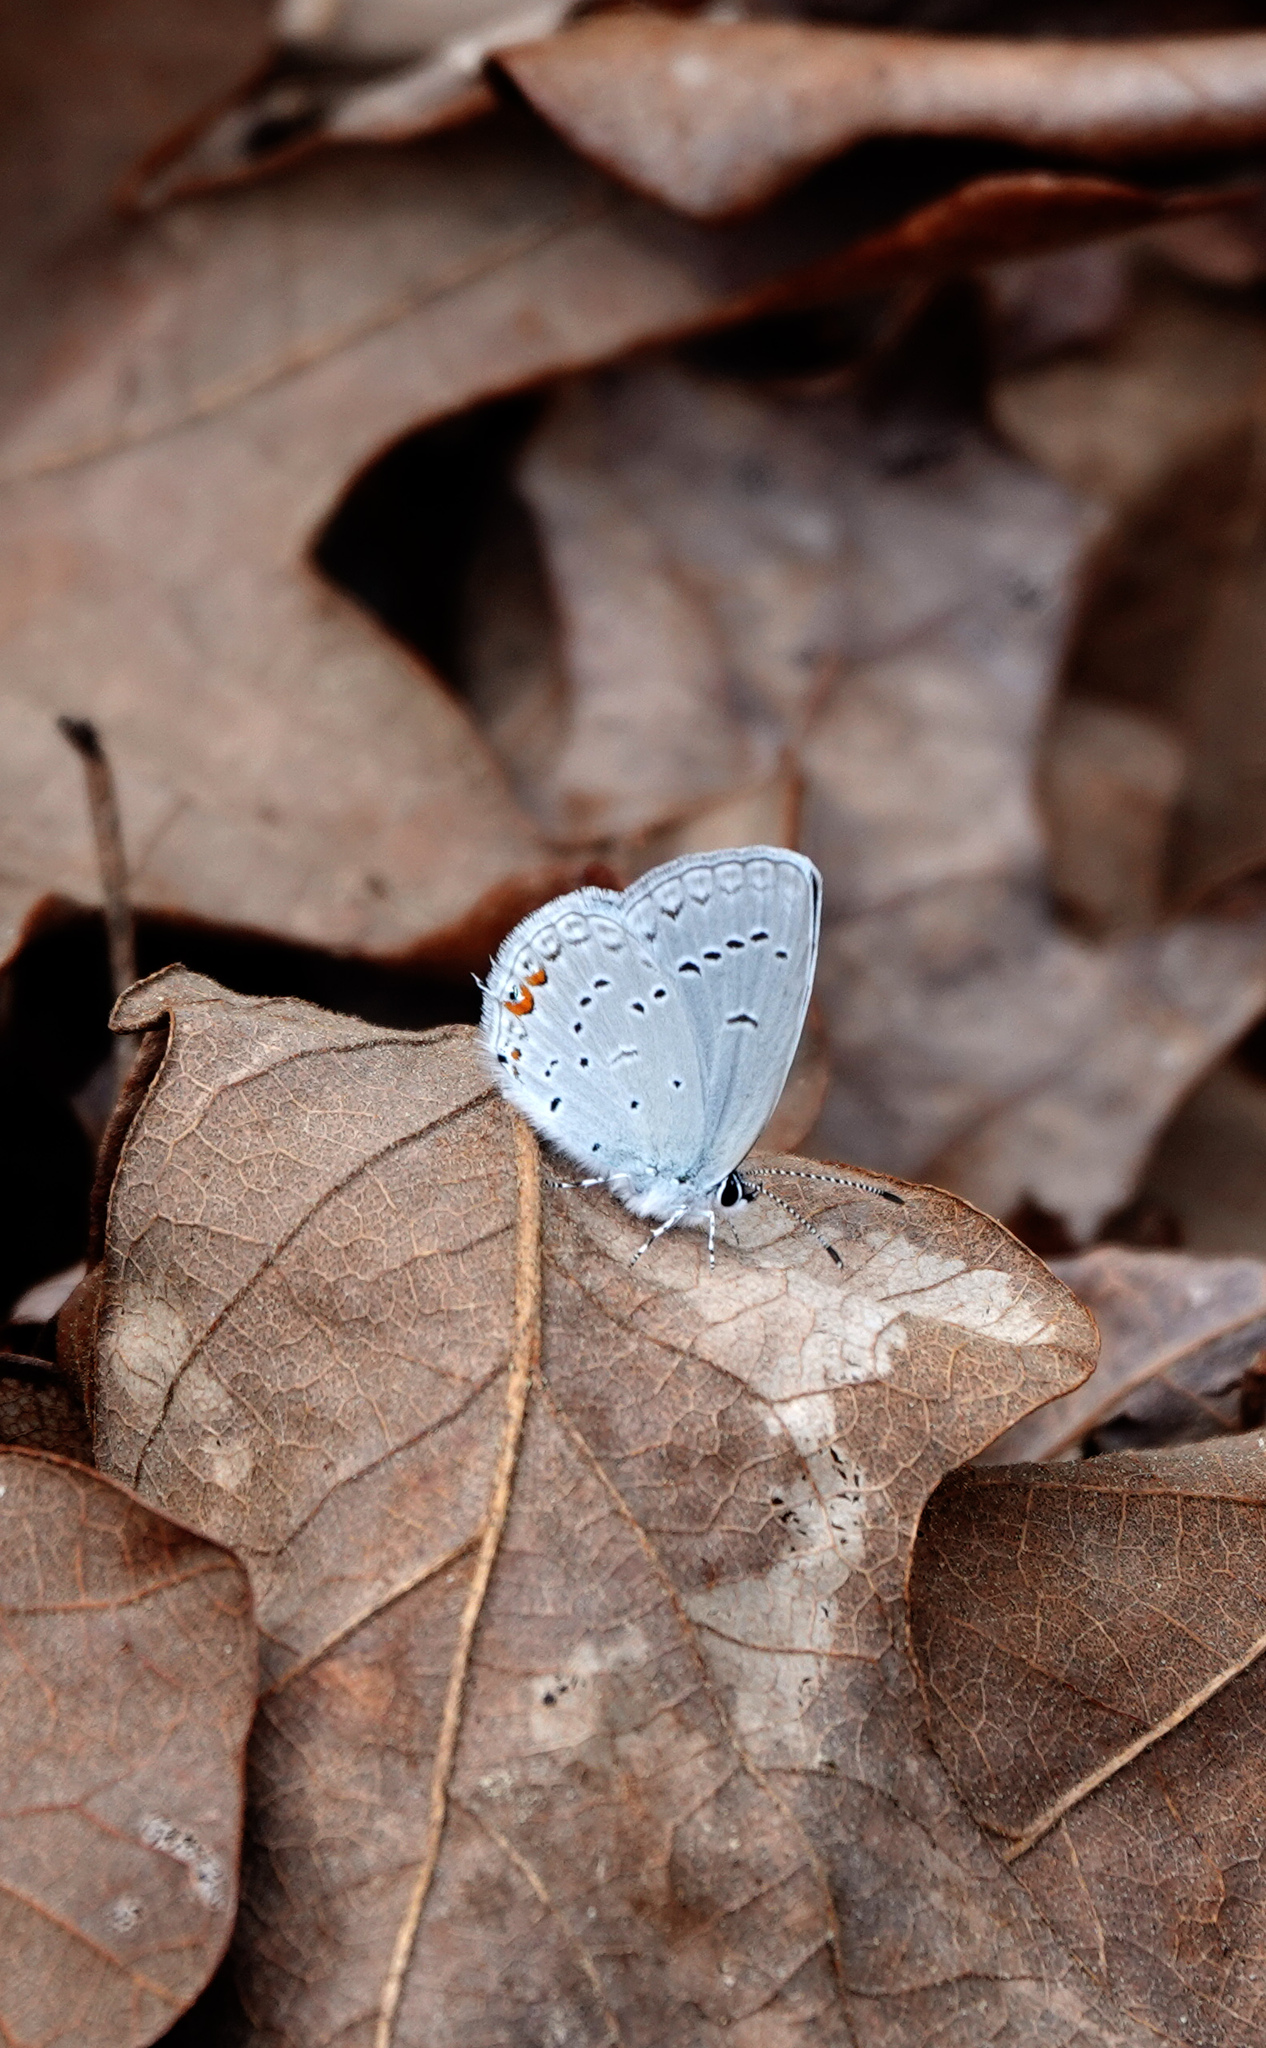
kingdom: Animalia
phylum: Arthropoda
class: Insecta
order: Lepidoptera
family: Lycaenidae
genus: Elkalyce
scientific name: Elkalyce comyntas
